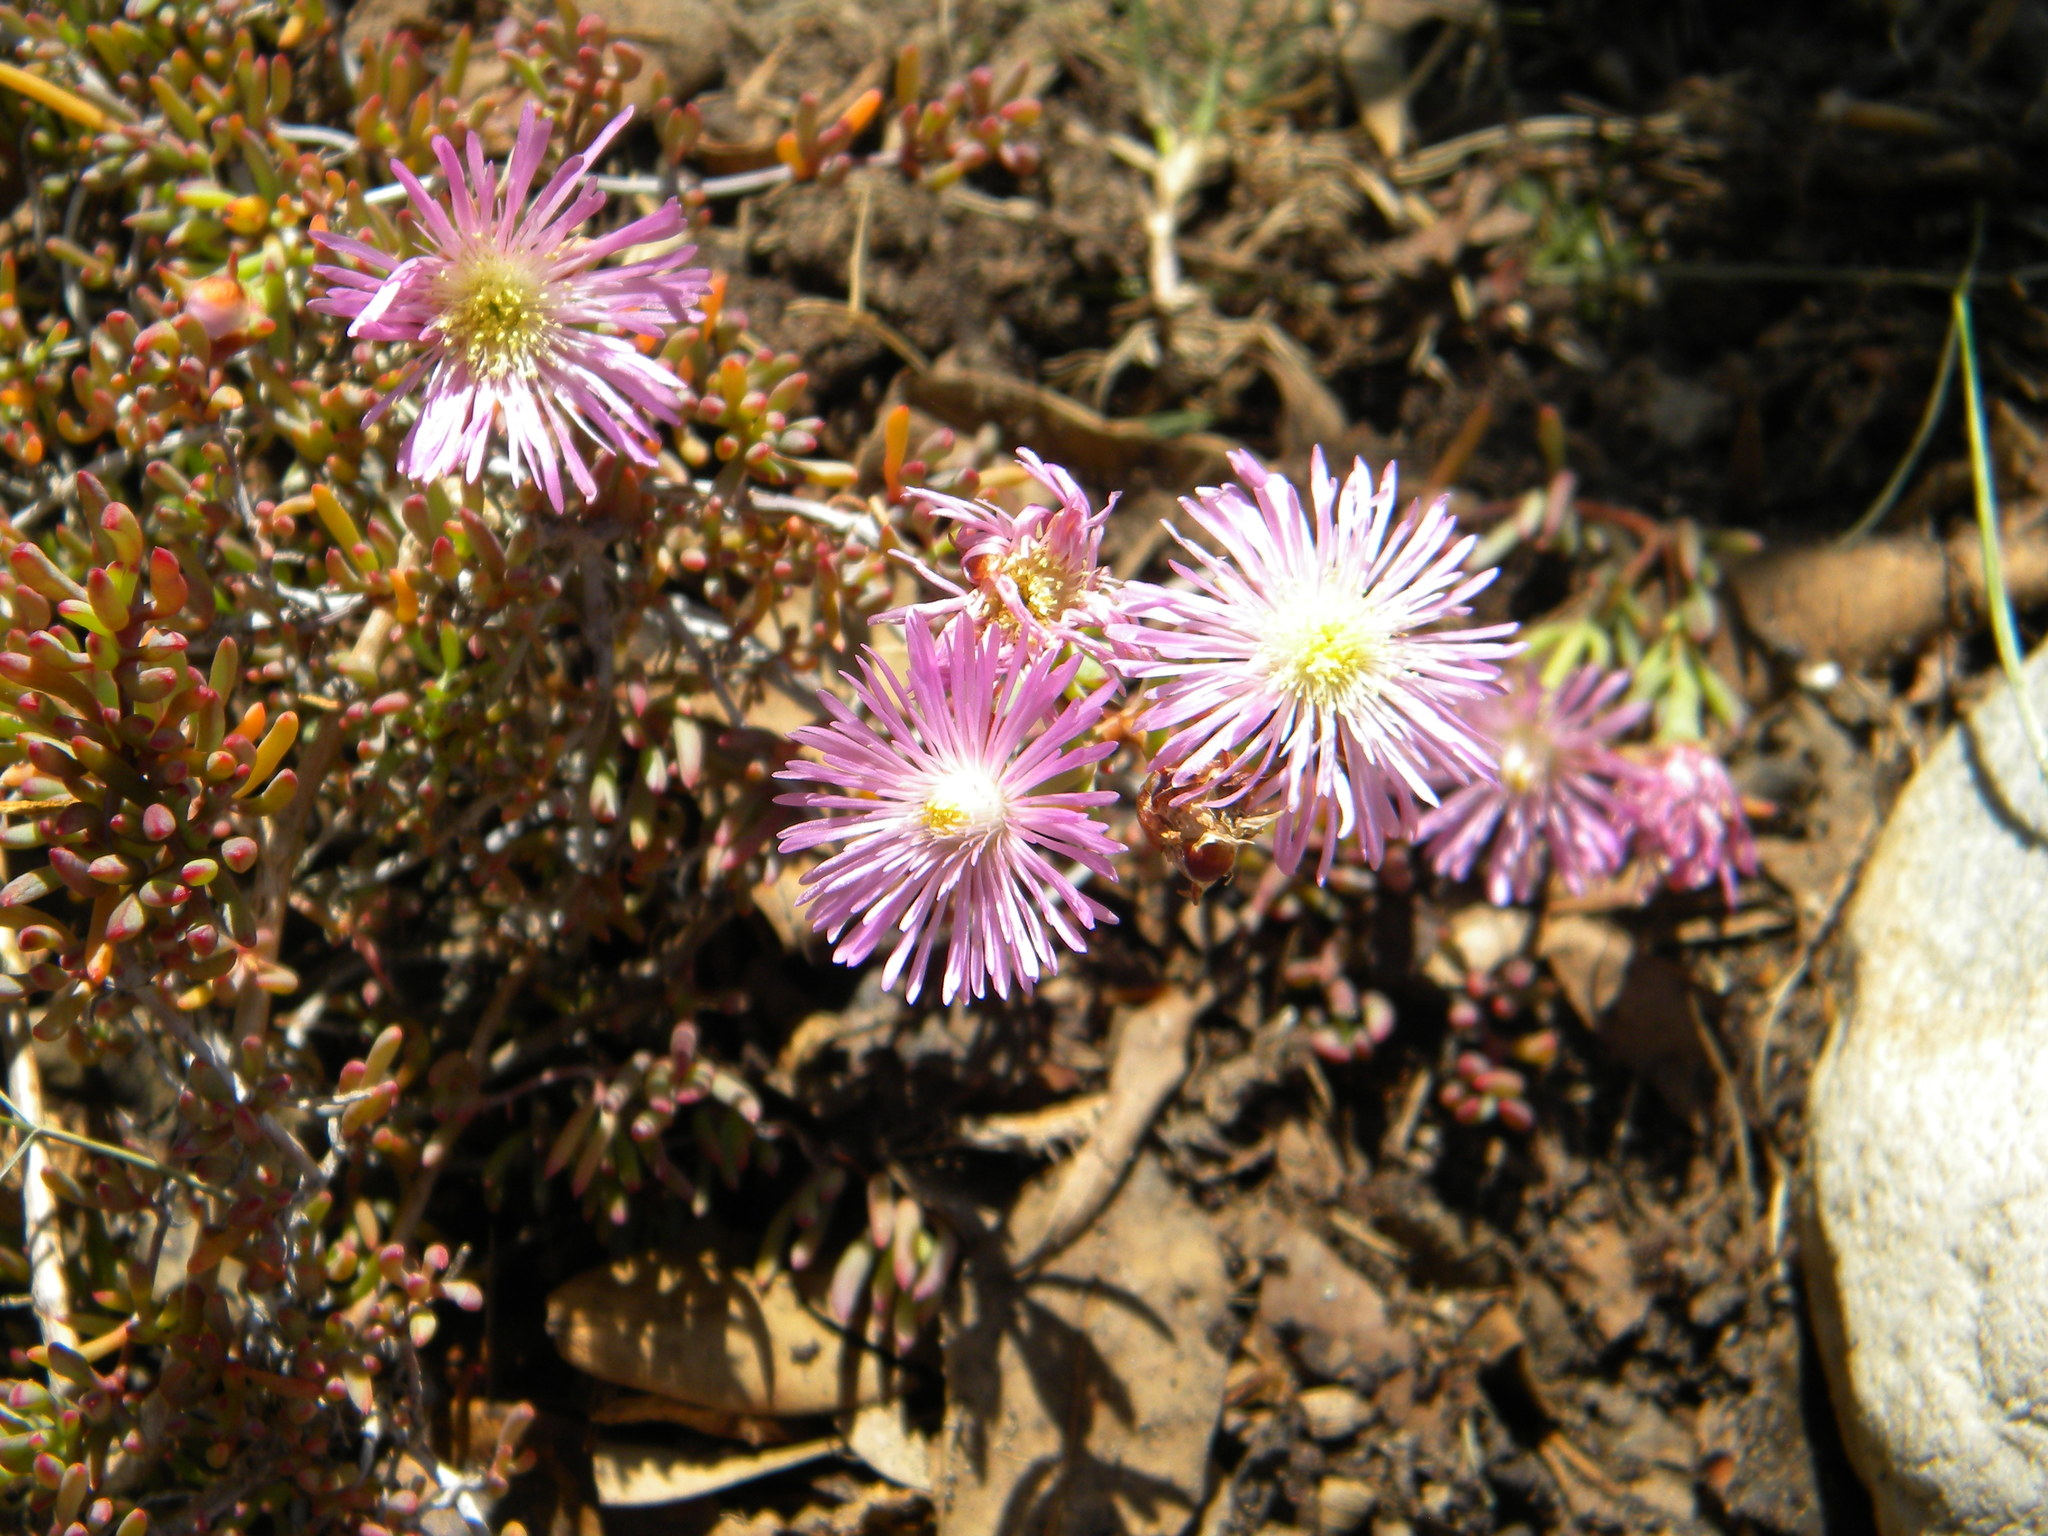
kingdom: Plantae
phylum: Tracheophyta
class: Magnoliopsida
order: Caryophyllales
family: Aizoaceae
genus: Lampranthus
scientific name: Lampranthus stenus
